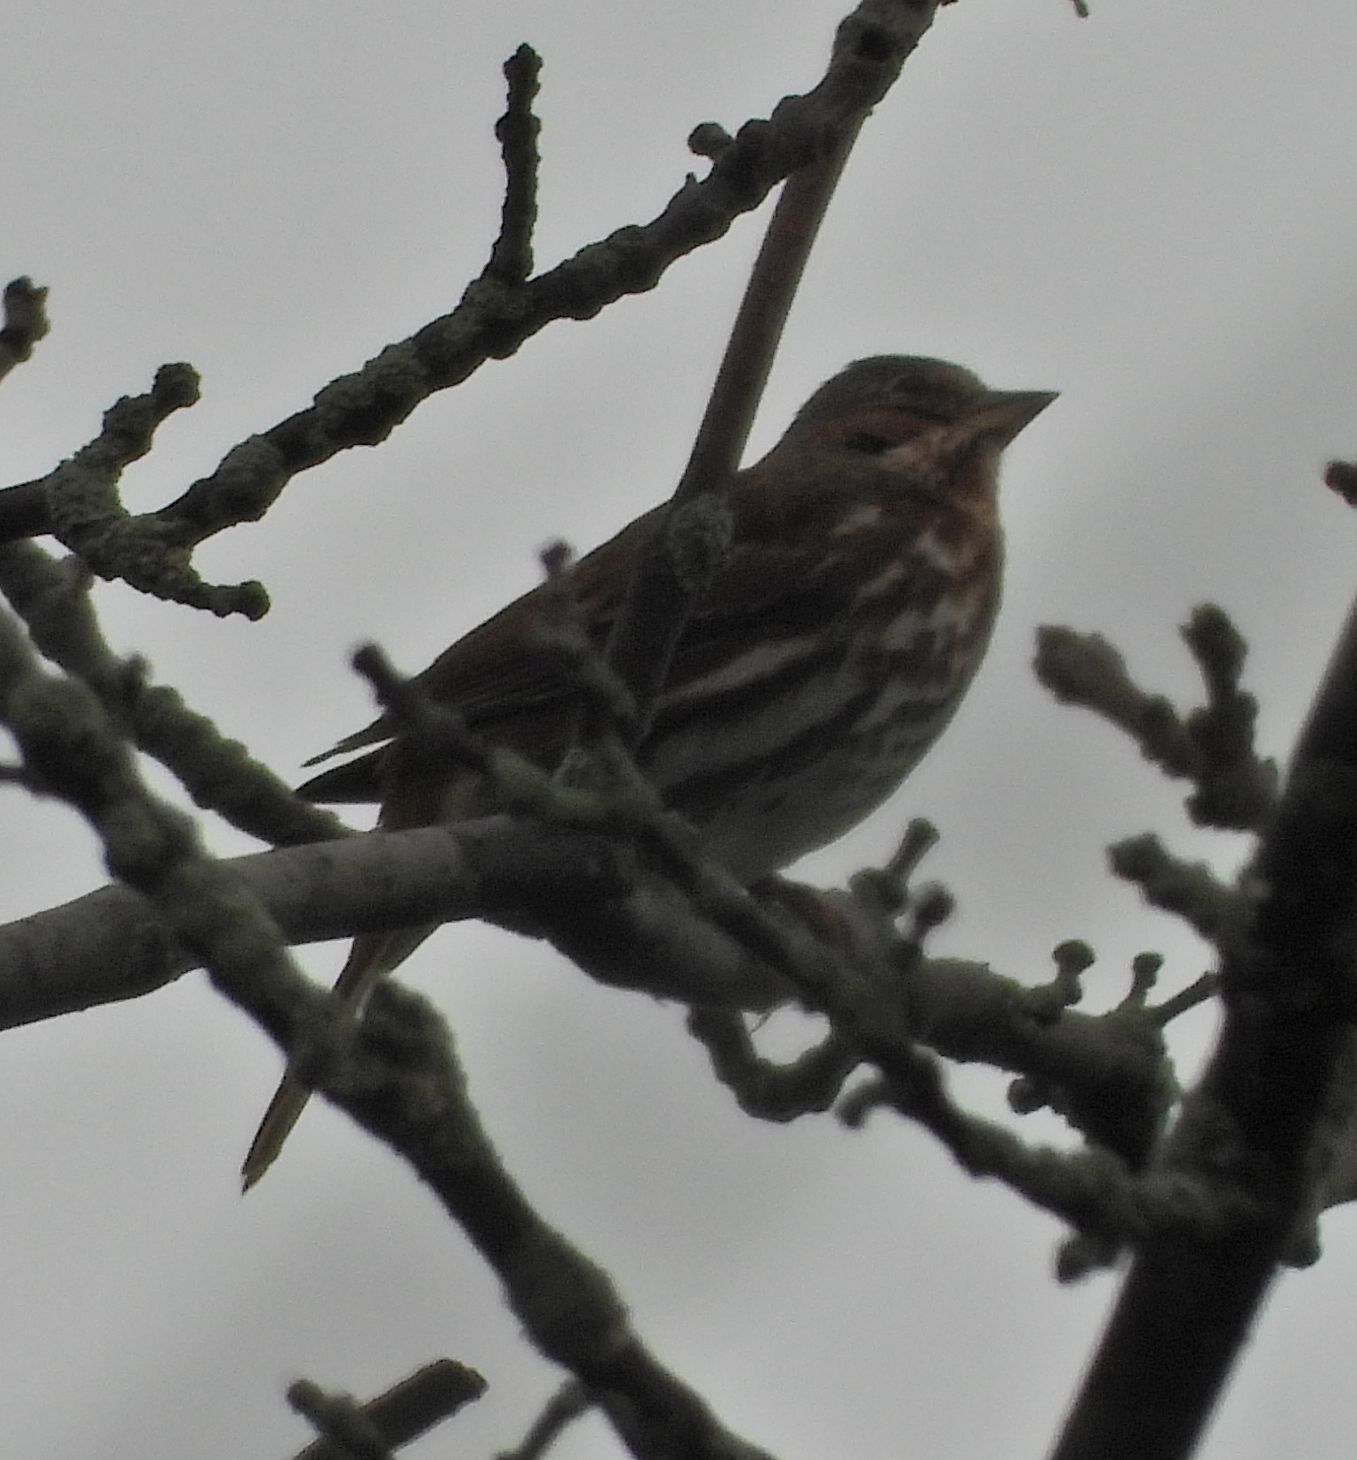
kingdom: Animalia
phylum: Chordata
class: Aves
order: Passeriformes
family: Passerellidae
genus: Passerella
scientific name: Passerella iliaca
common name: Fox sparrow
